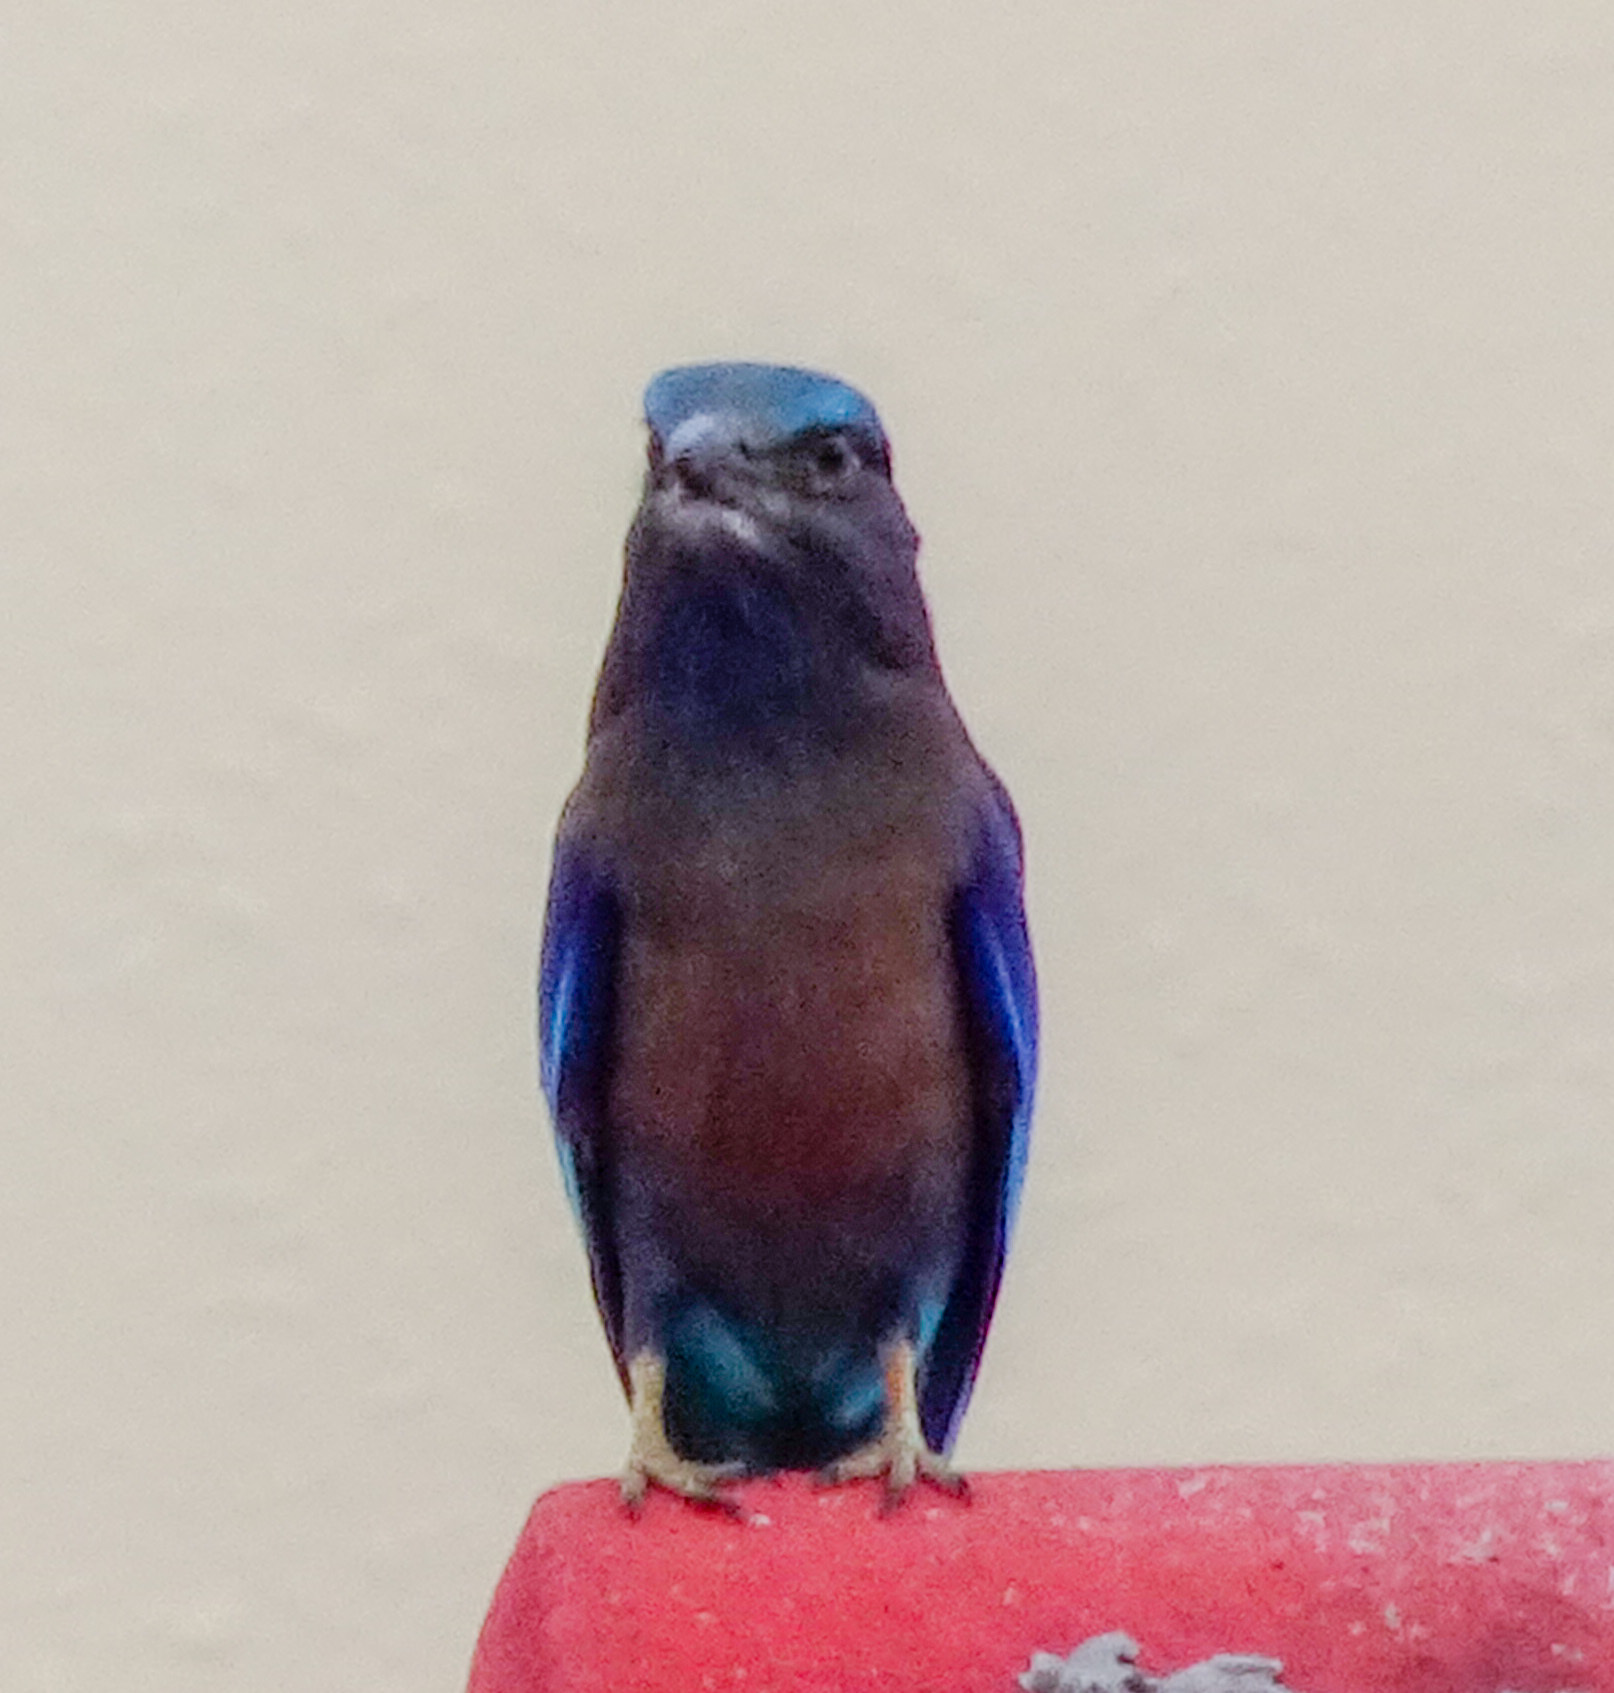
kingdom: Animalia
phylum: Chordata
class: Aves
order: Coraciiformes
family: Coraciidae
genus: Coracias
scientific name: Coracias affinis
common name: Indochinese roller
